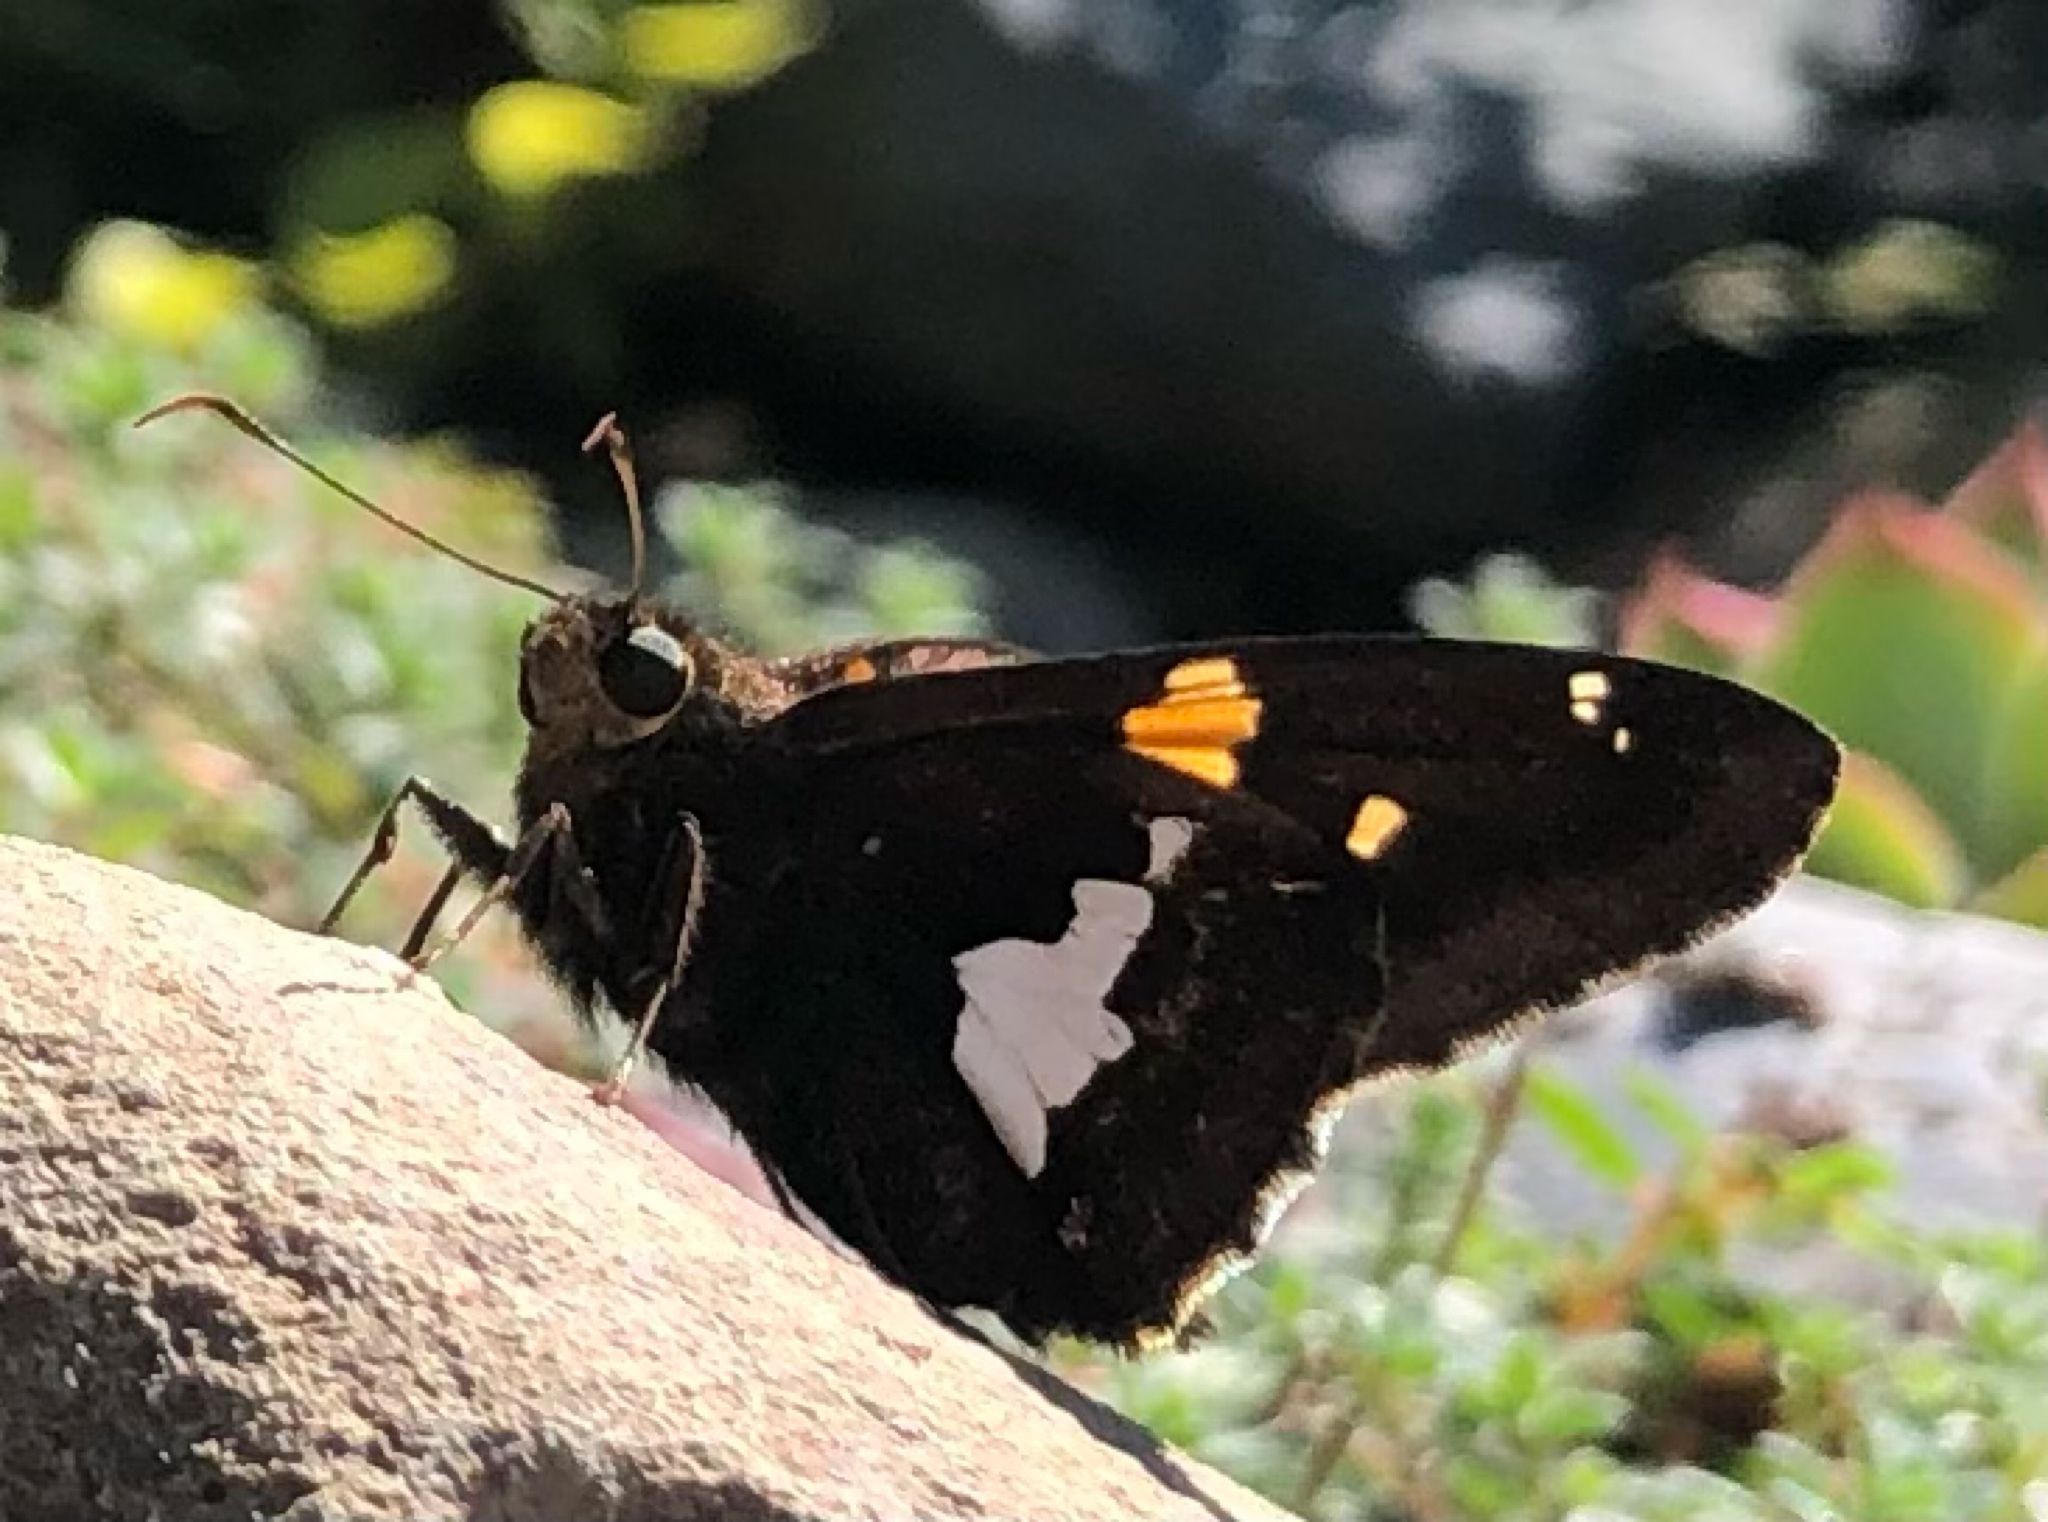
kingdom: Animalia
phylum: Arthropoda
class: Insecta
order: Lepidoptera
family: Hesperiidae
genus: Epargyreus
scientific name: Epargyreus clarus
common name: Silver-spotted skipper
